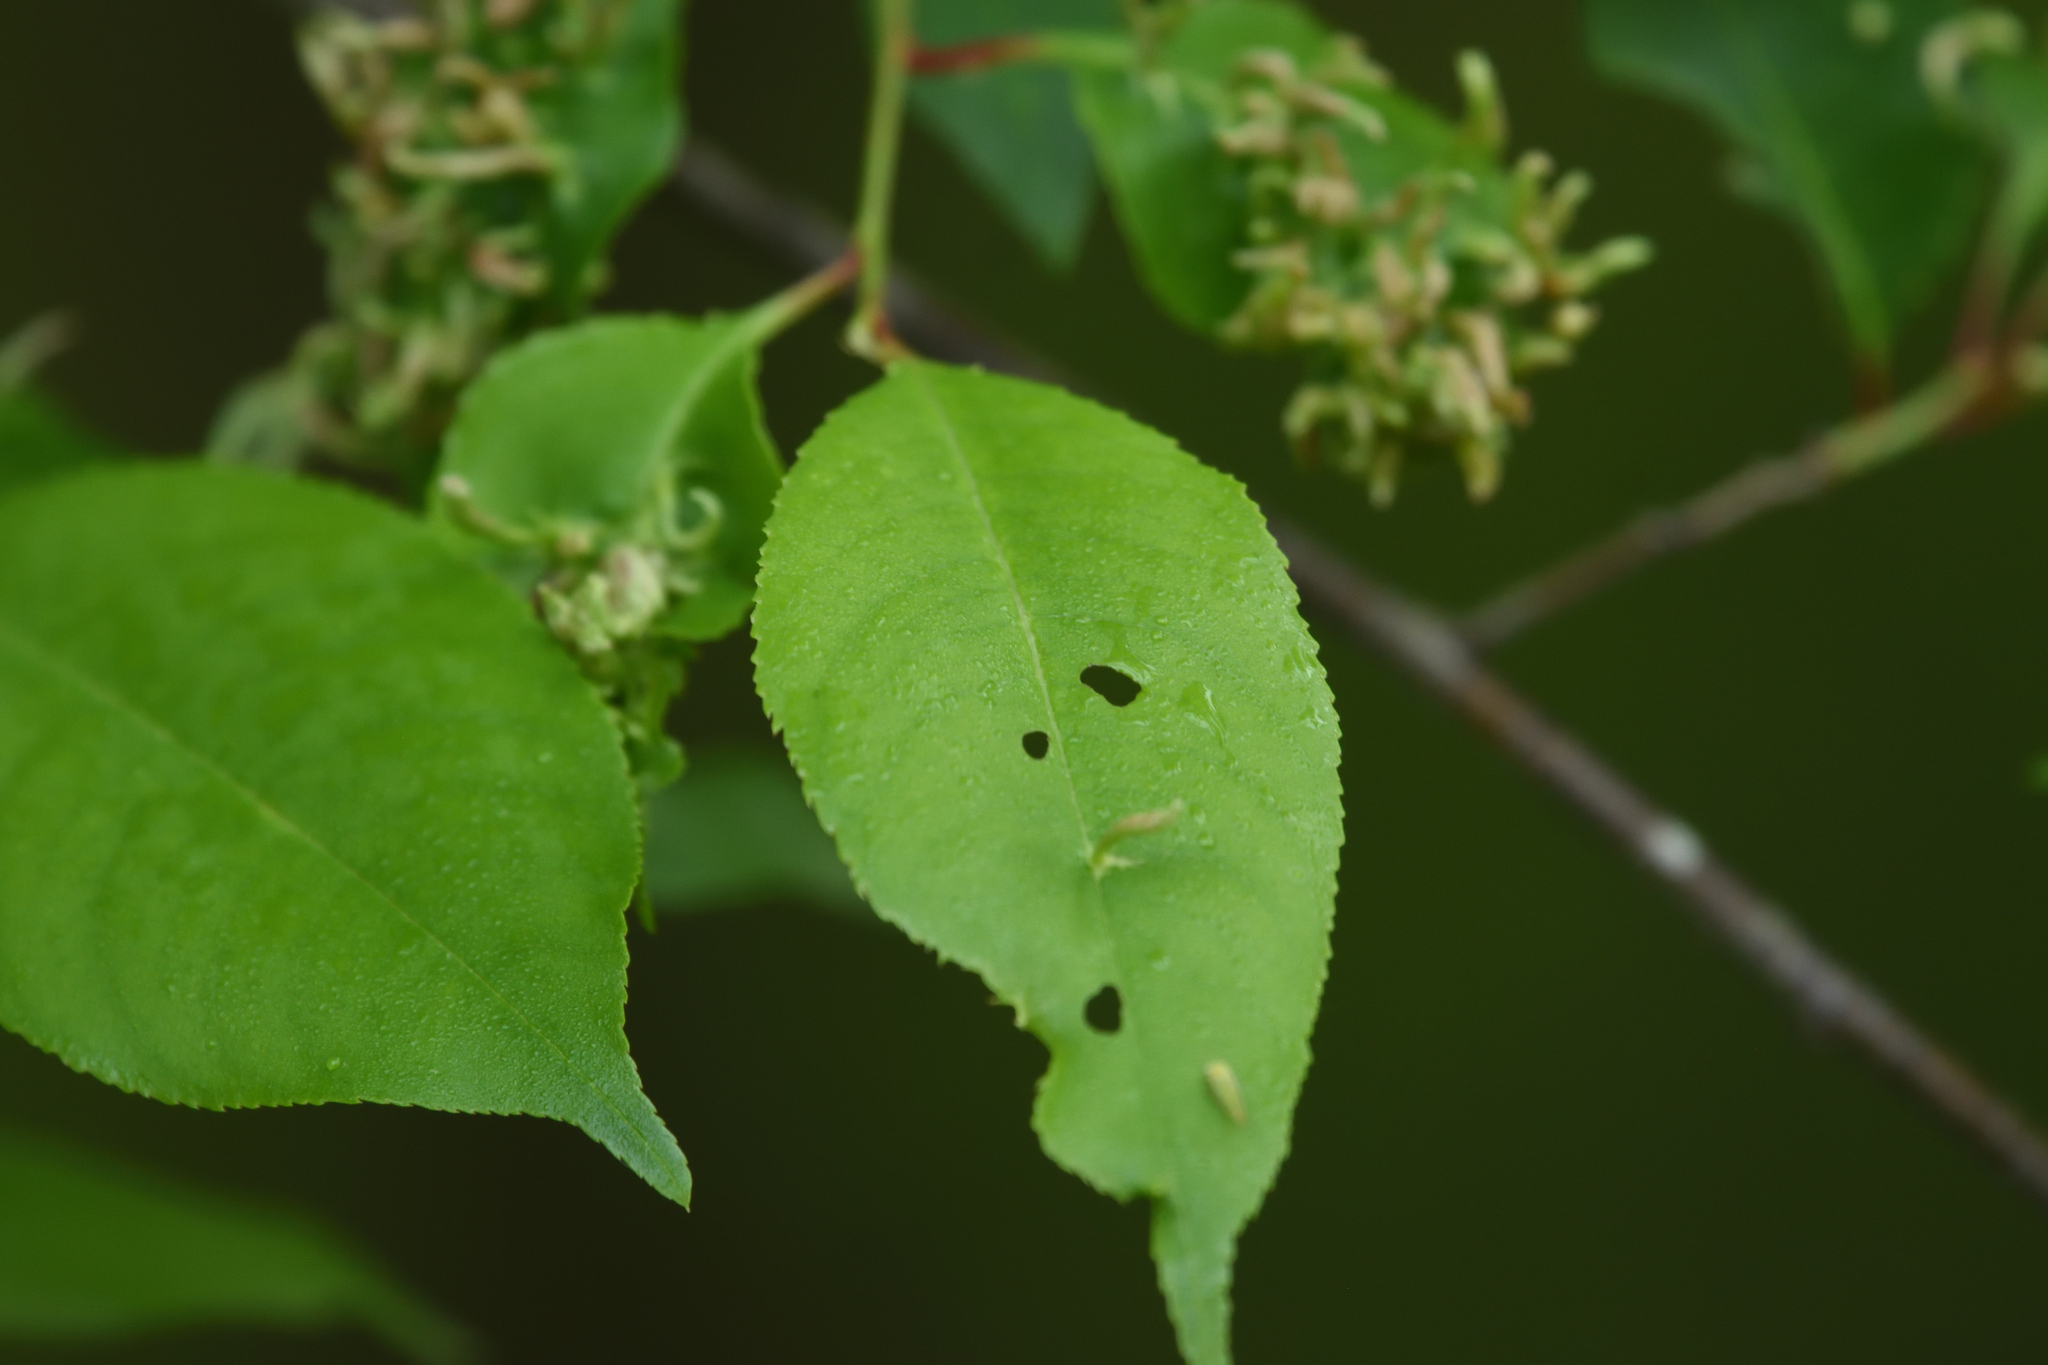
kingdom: Animalia
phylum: Arthropoda
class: Arachnida
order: Trombidiformes
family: Eriophyidae
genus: Eriophyes
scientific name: Eriophyes
